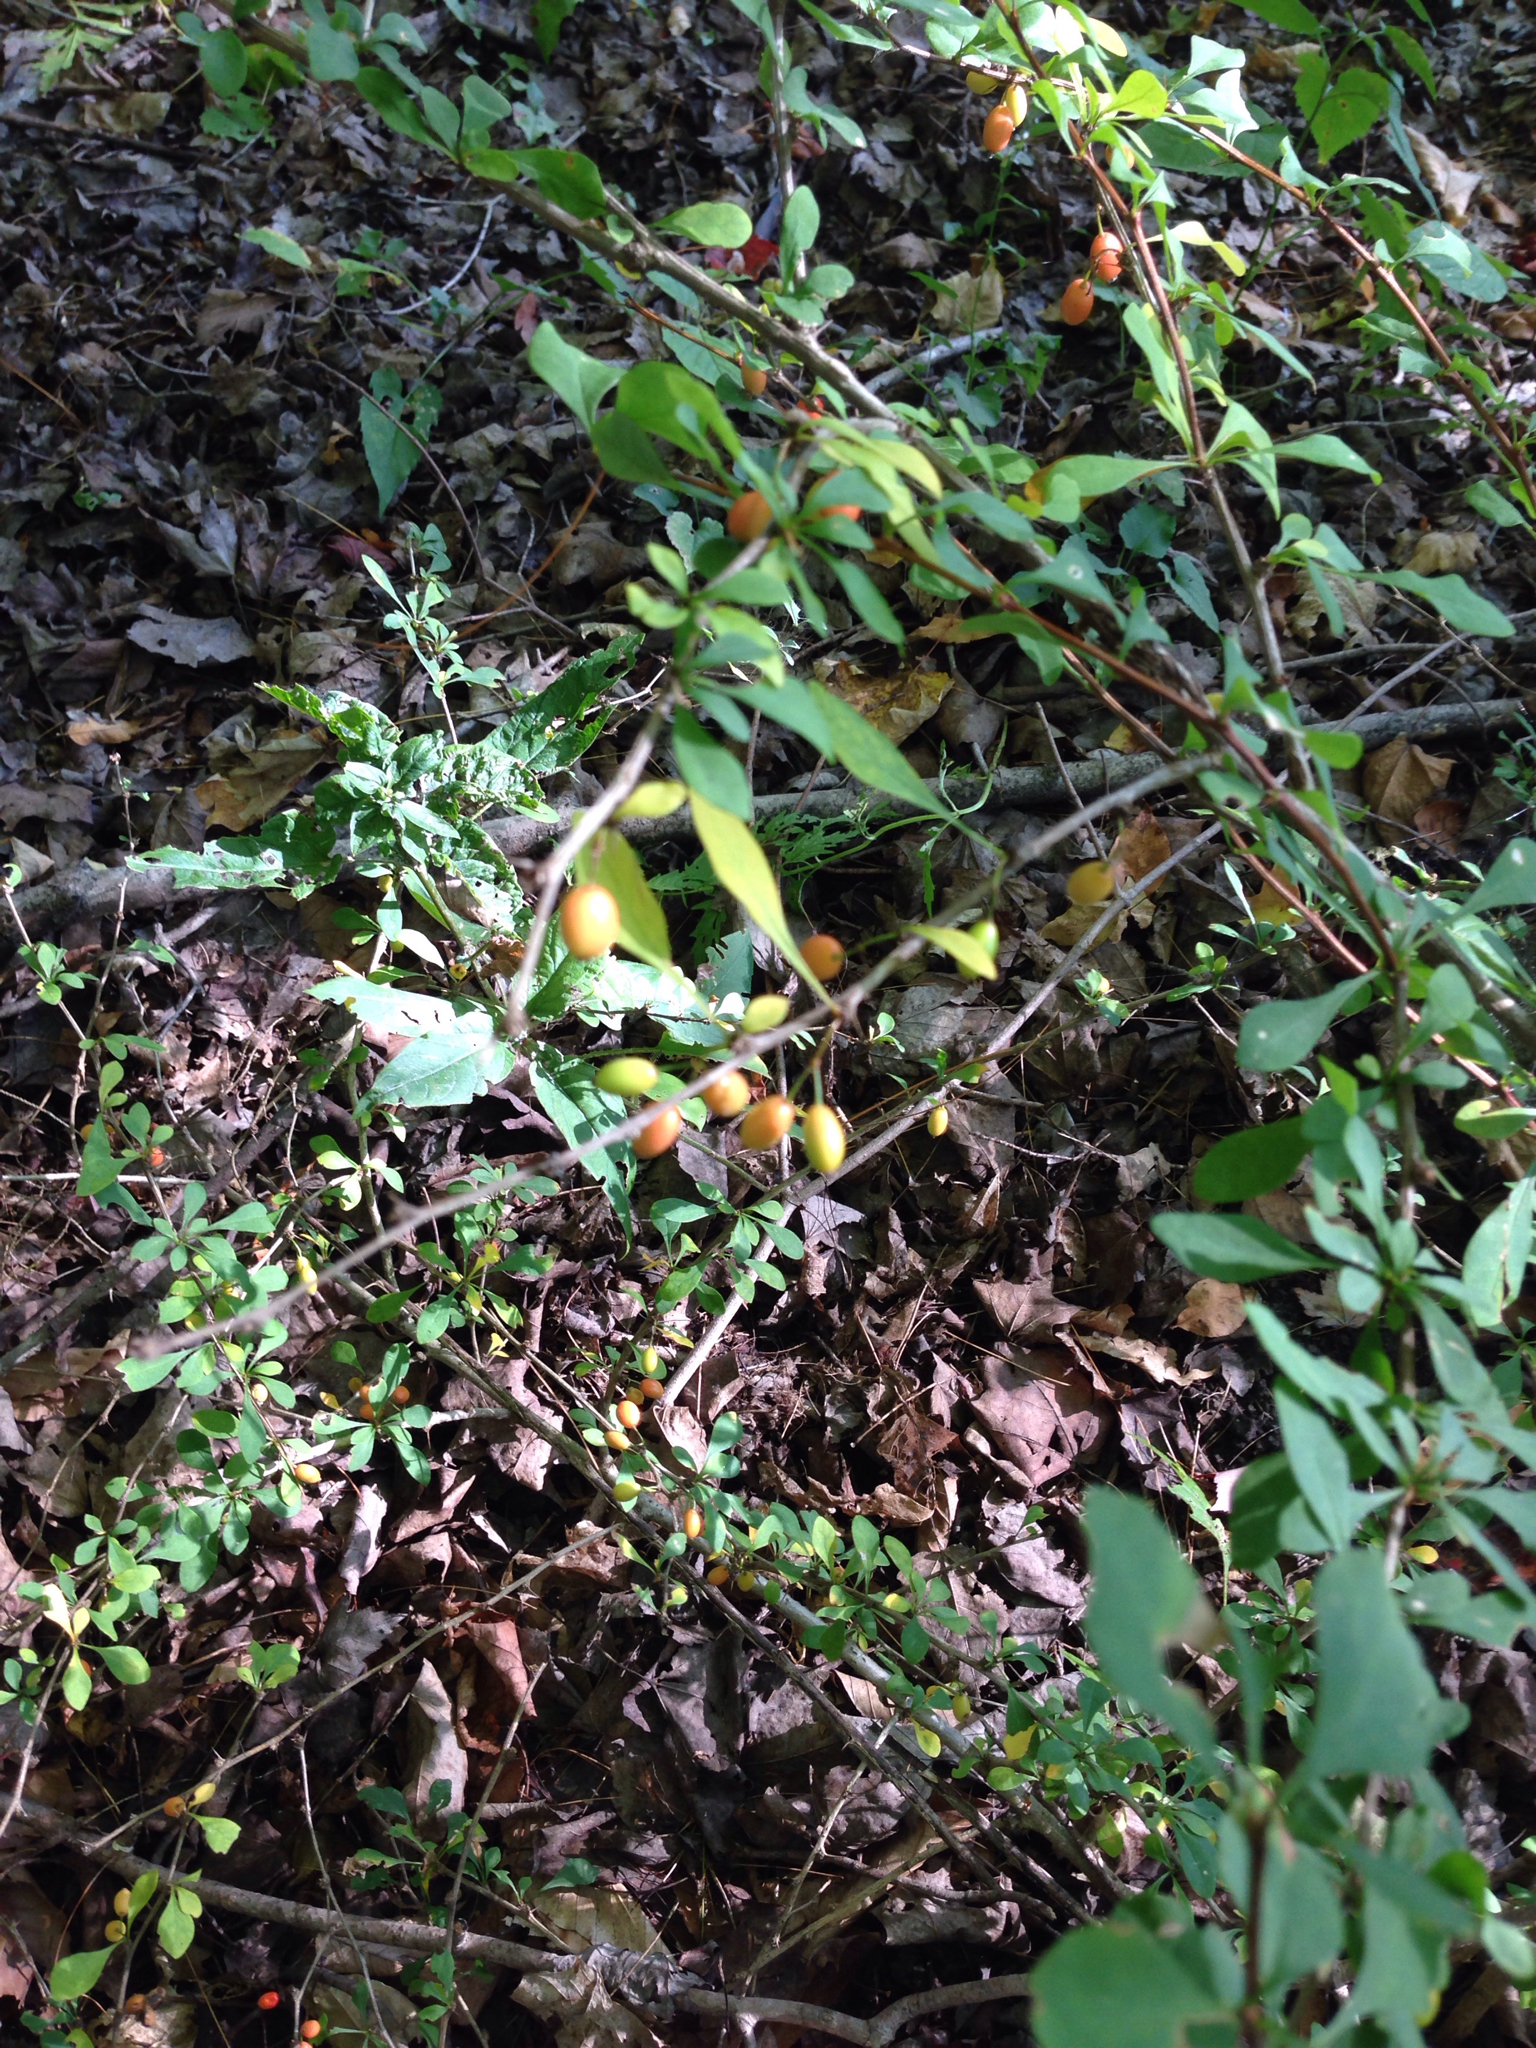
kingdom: Plantae
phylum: Tracheophyta
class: Magnoliopsida
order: Ranunculales
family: Berberidaceae
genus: Berberis
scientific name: Berberis thunbergii
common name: Japanese barberry
